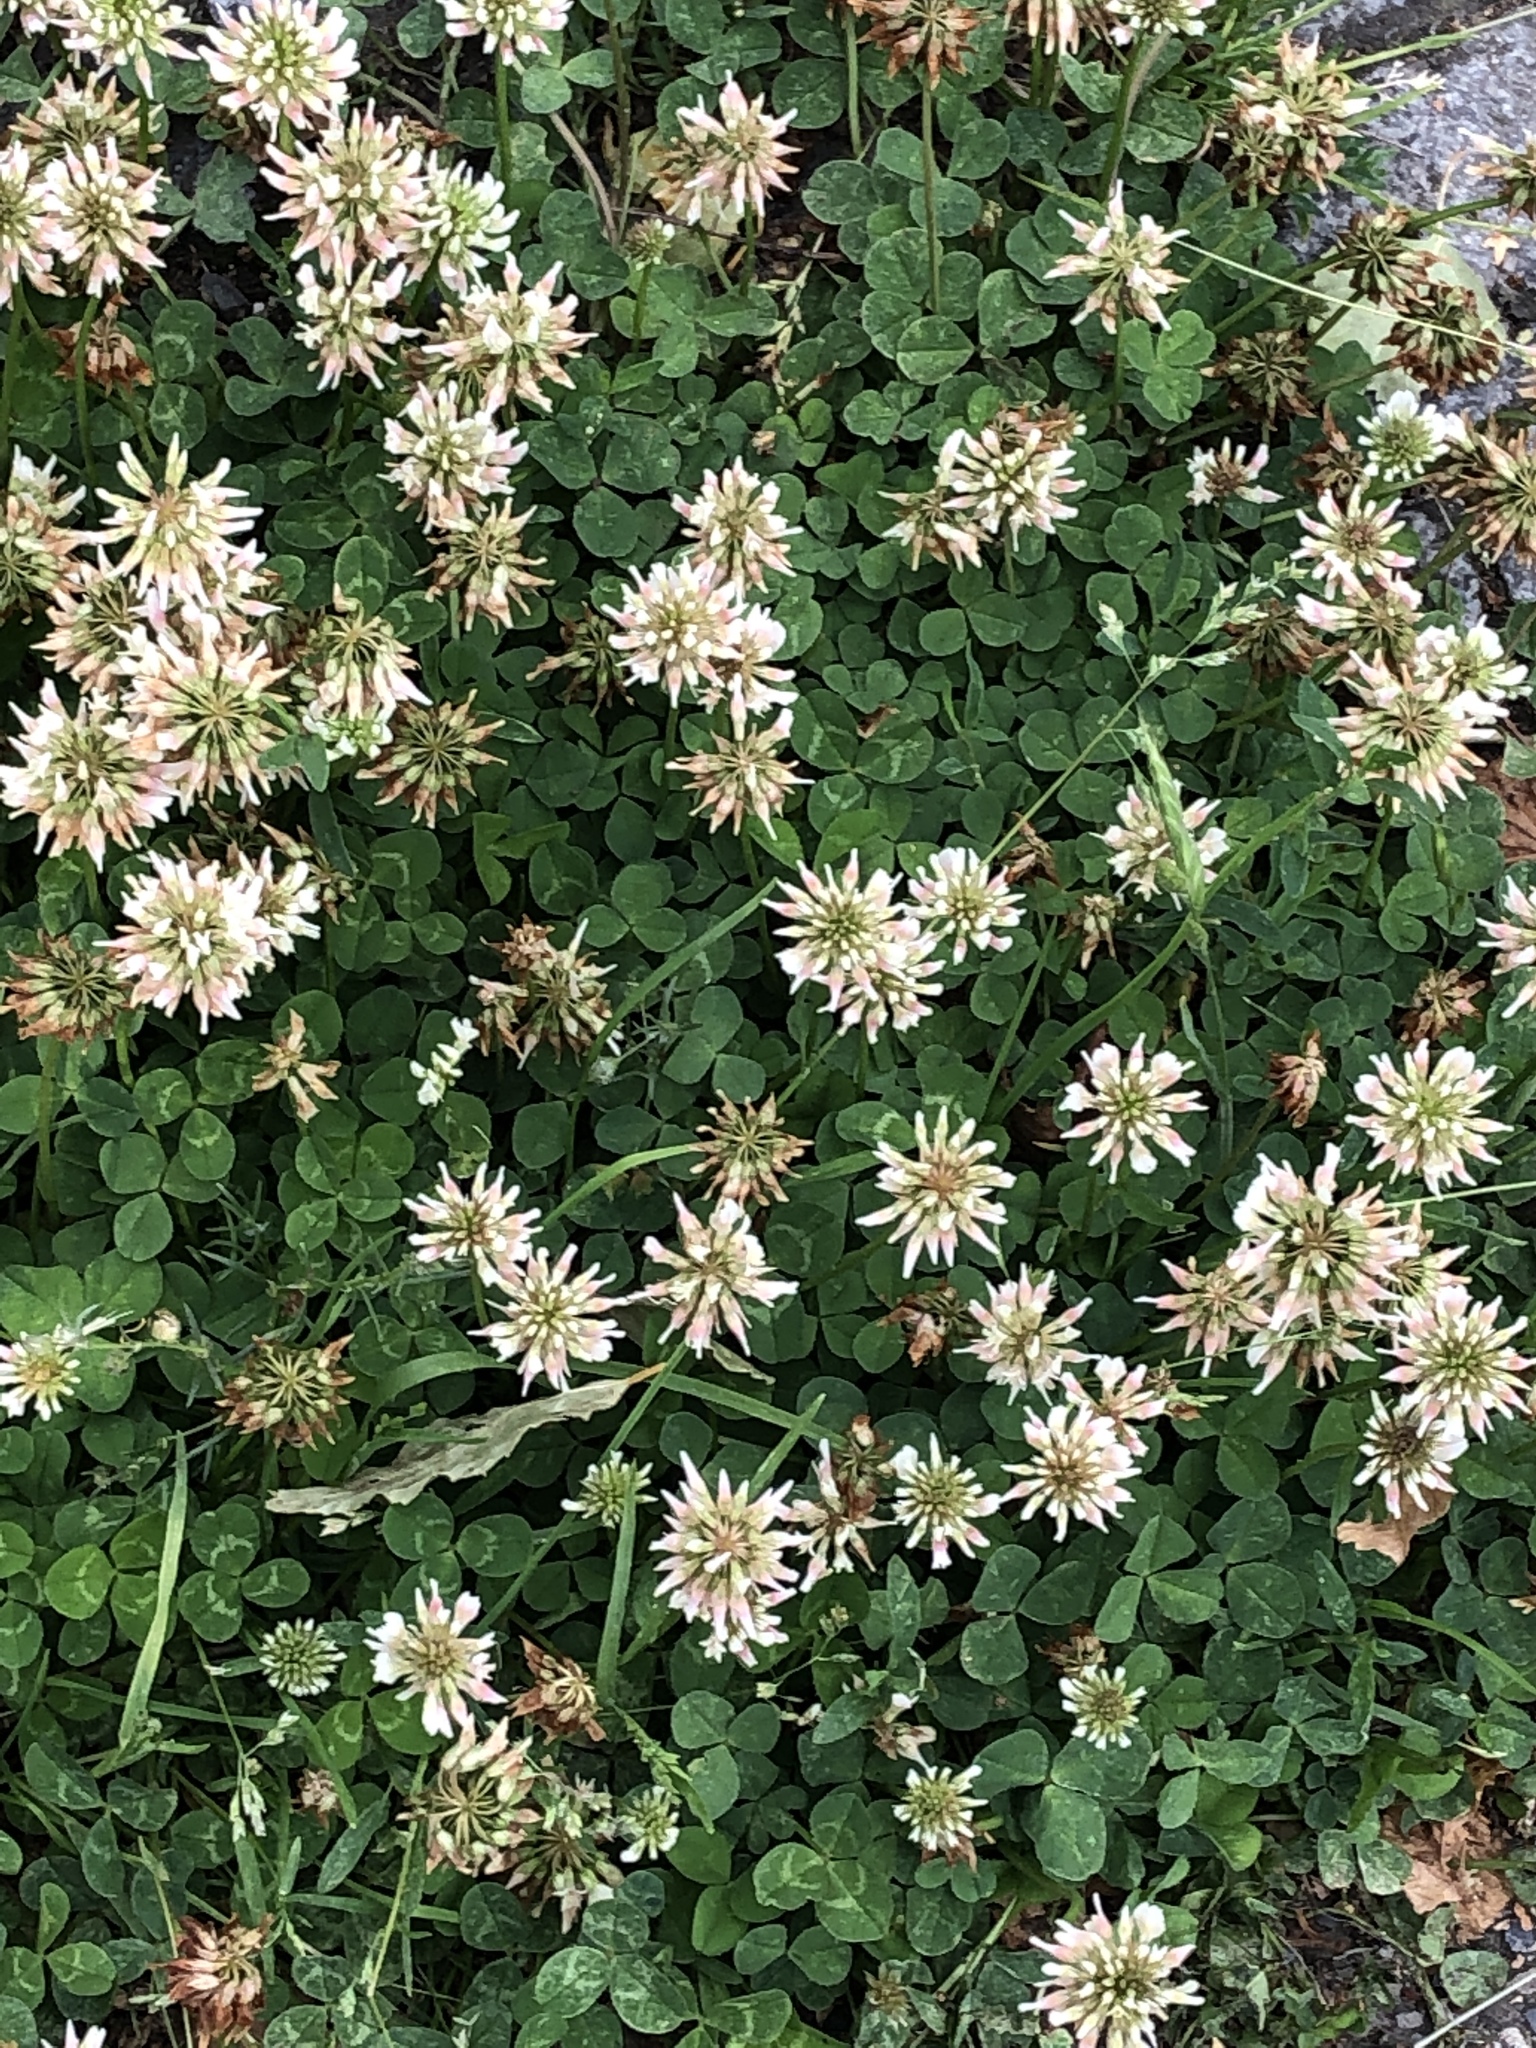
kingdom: Plantae
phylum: Tracheophyta
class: Magnoliopsida
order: Fabales
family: Fabaceae
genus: Trifolium
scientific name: Trifolium repens
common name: White clover
